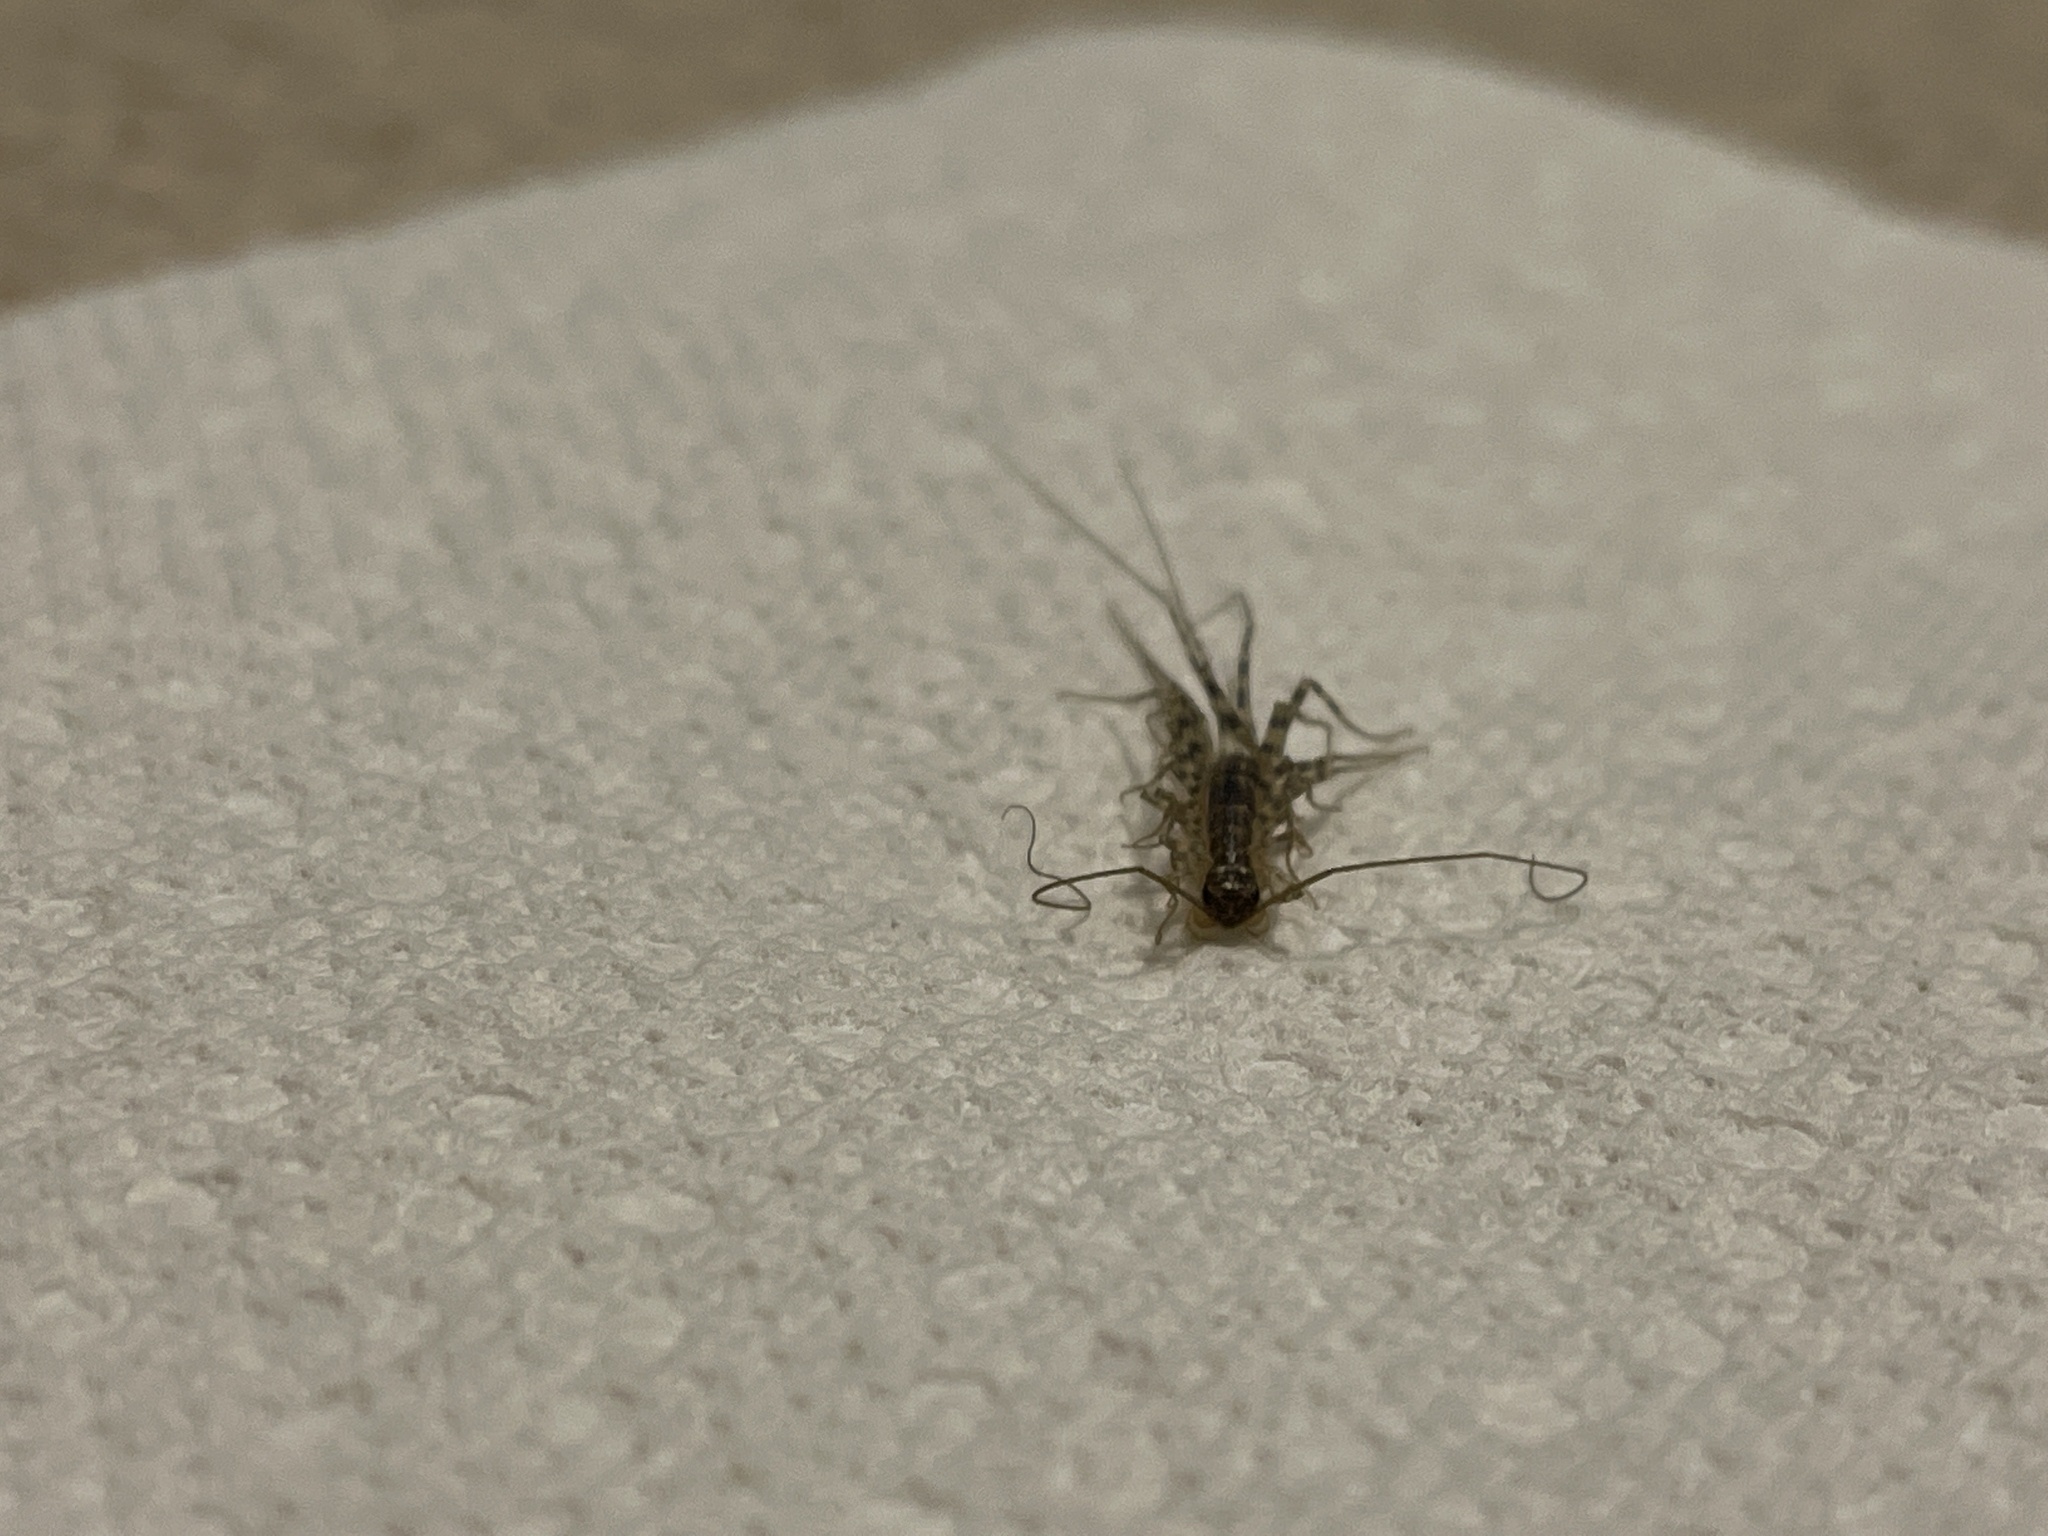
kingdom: Animalia
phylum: Arthropoda
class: Chilopoda
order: Scutigeromorpha
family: Scutigeridae
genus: Scutigera
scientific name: Scutigera coleoptrata
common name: House centipede
